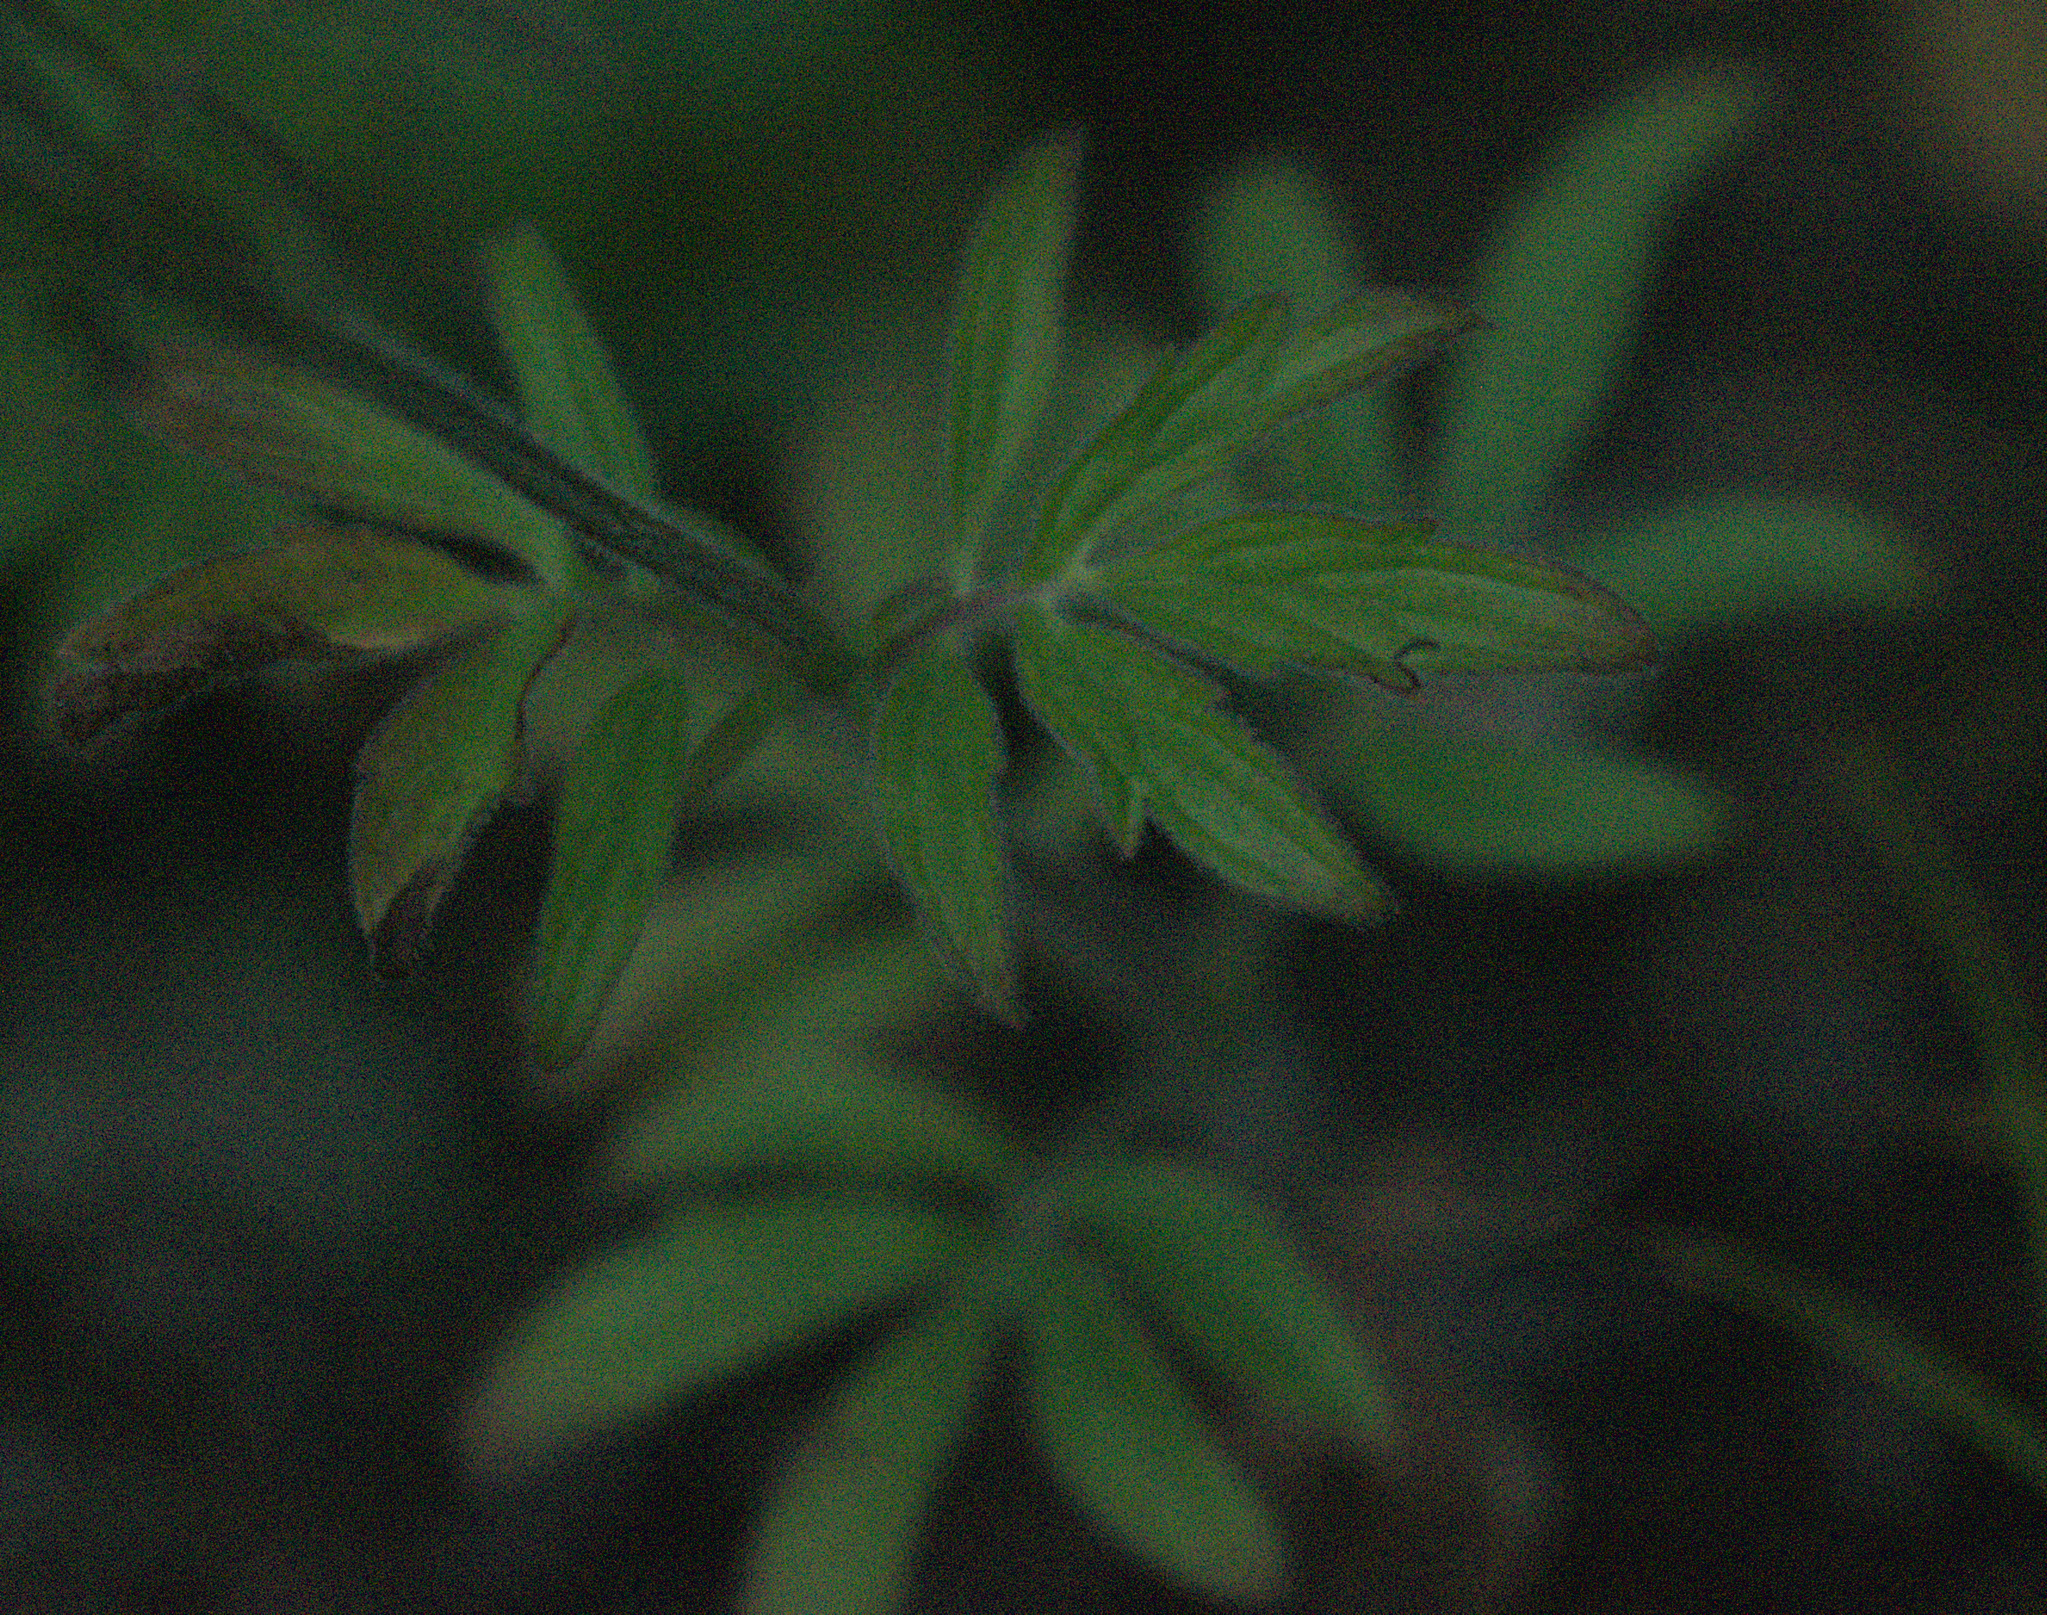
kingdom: Plantae
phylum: Tracheophyta
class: Magnoliopsida
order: Lamiales
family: Lamiaceae
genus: Nepeta
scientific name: Nepeta multifida
